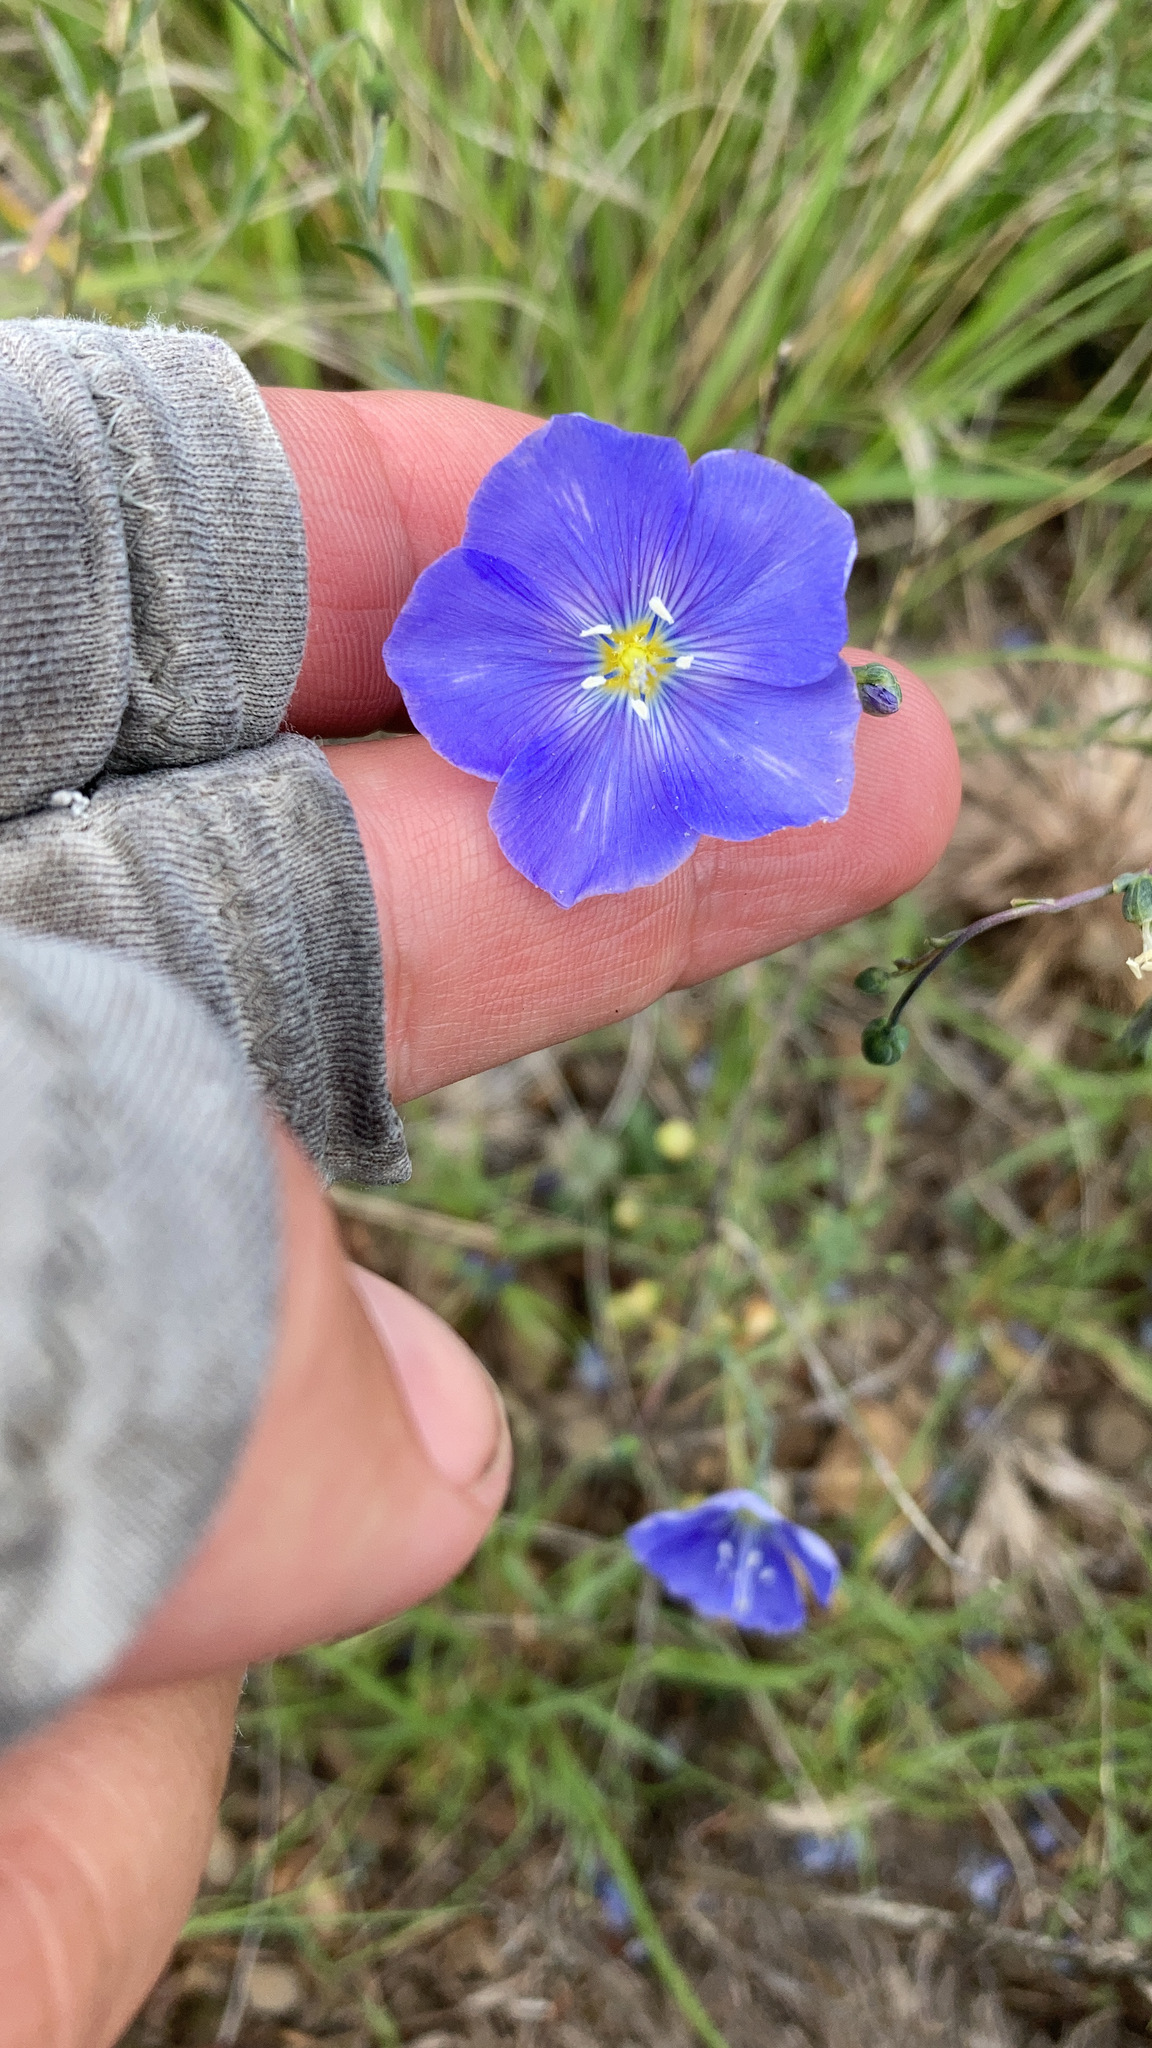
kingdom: Plantae
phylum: Tracheophyta
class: Magnoliopsida
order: Malpighiales
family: Linaceae
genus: Linum
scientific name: Linum lewisii
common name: Prairie flax
